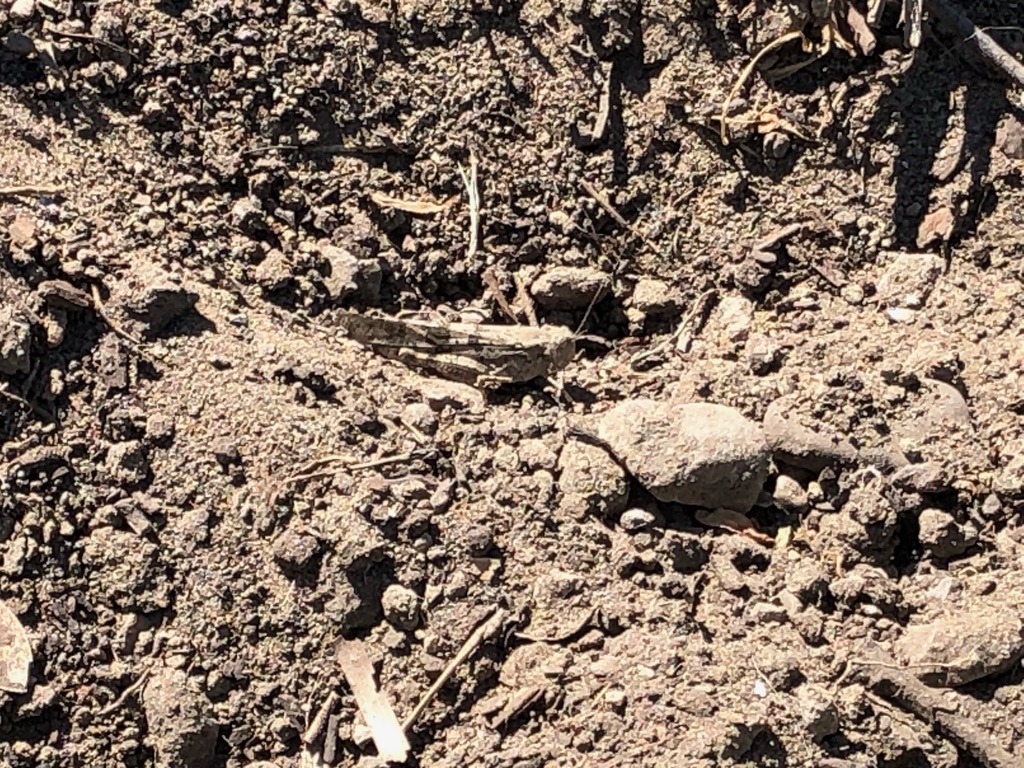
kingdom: Animalia
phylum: Arthropoda
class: Insecta
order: Orthoptera
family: Acrididae
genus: Trimerotropis
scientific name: Trimerotropis pallidipennis
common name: Pallid-winged grasshopper
